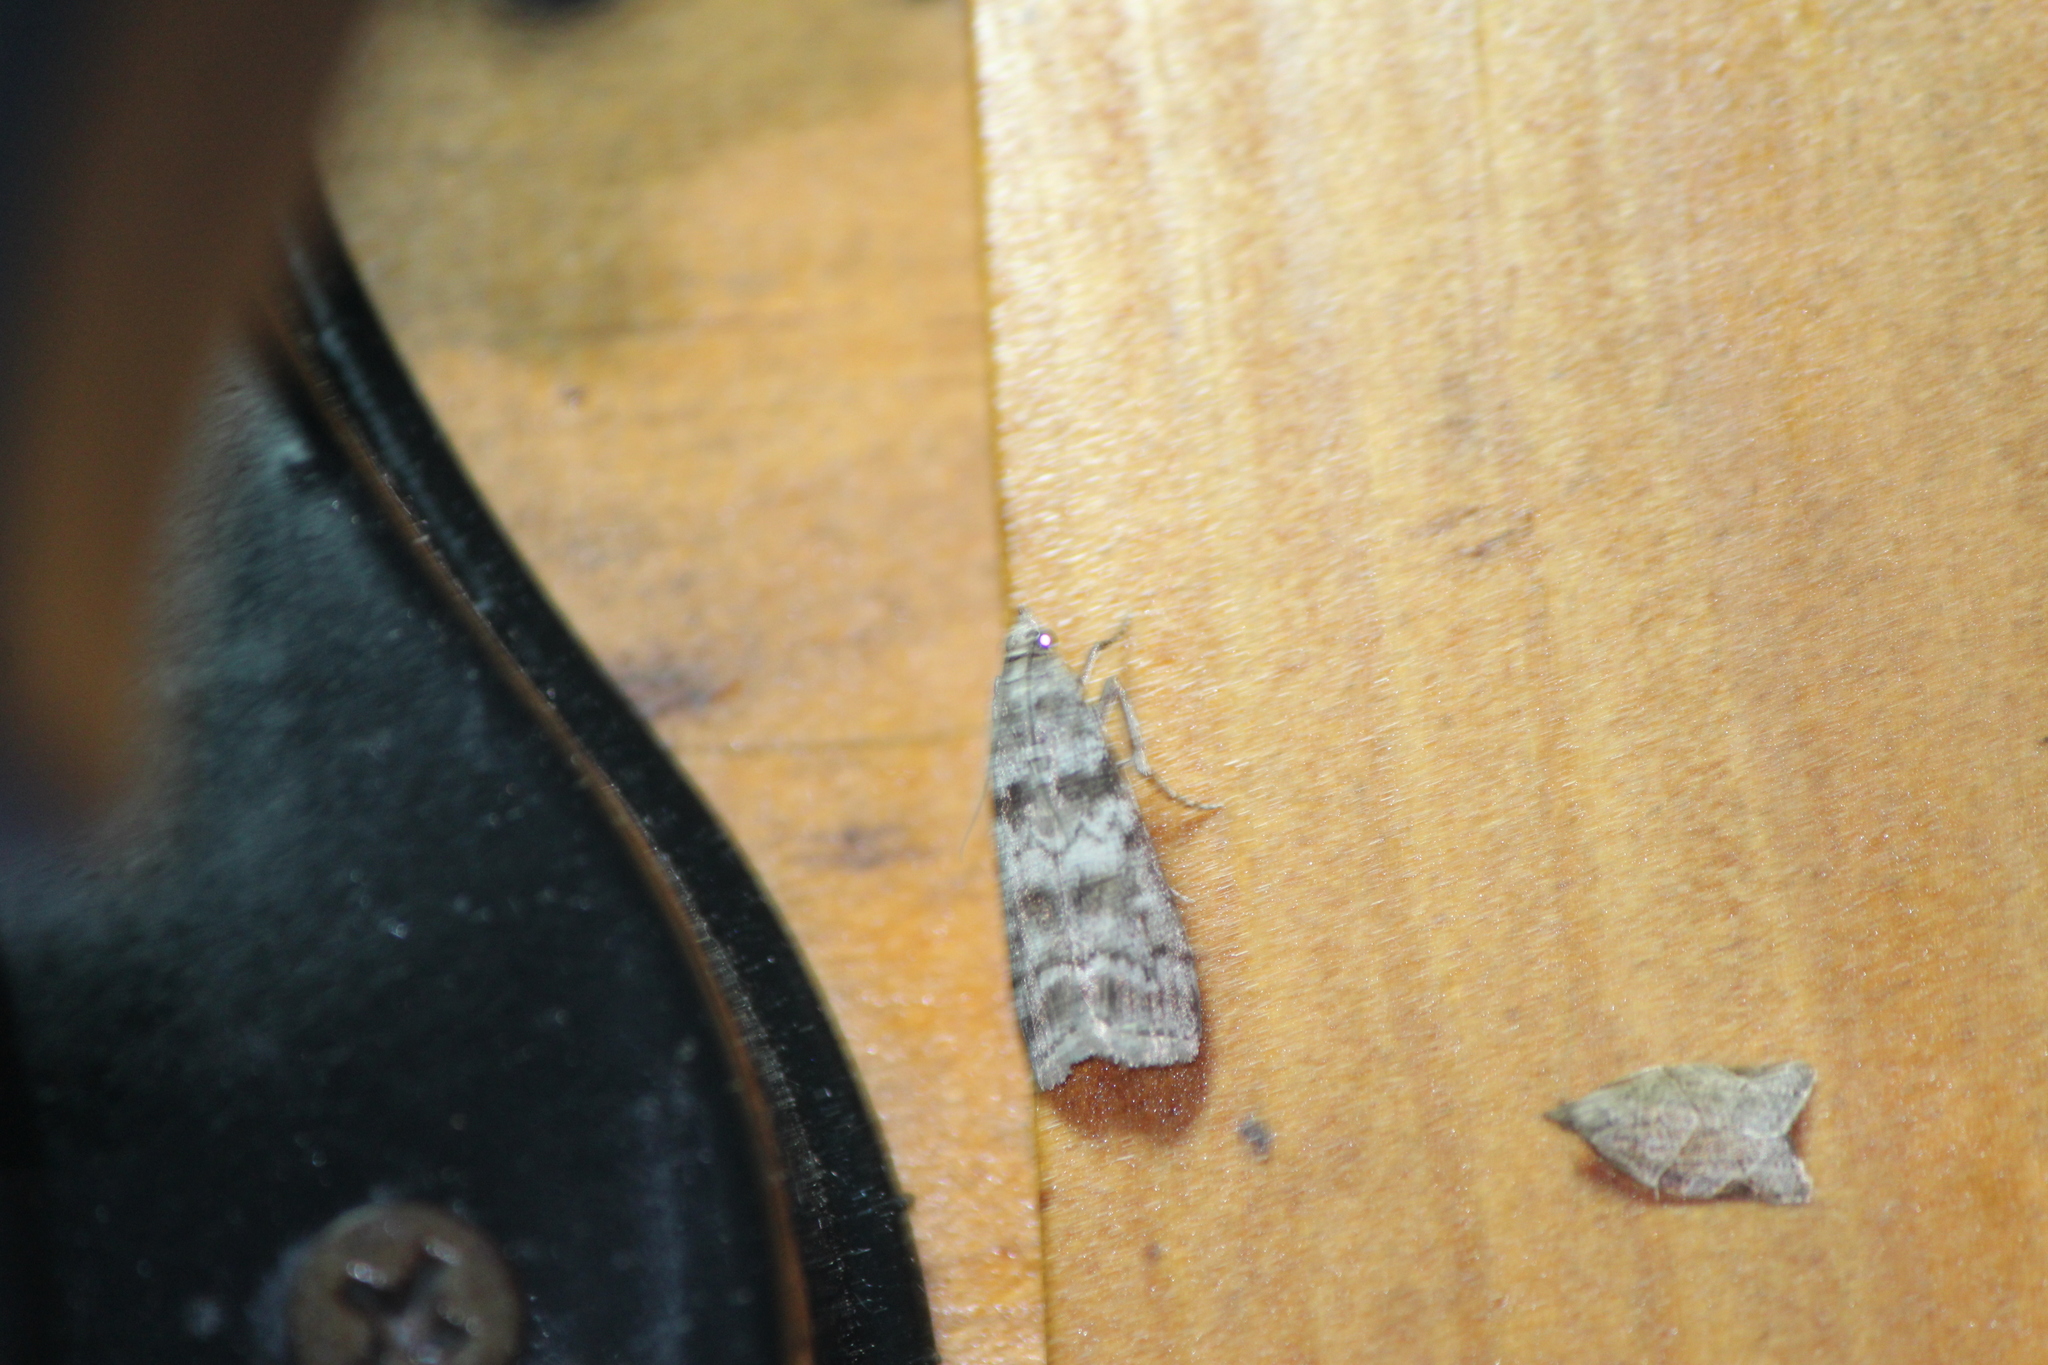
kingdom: Animalia
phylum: Arthropoda
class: Insecta
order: Lepidoptera
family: Crambidae
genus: Scoparia
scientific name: Scoparia biplagialis
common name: Double-striped scoparia moth
